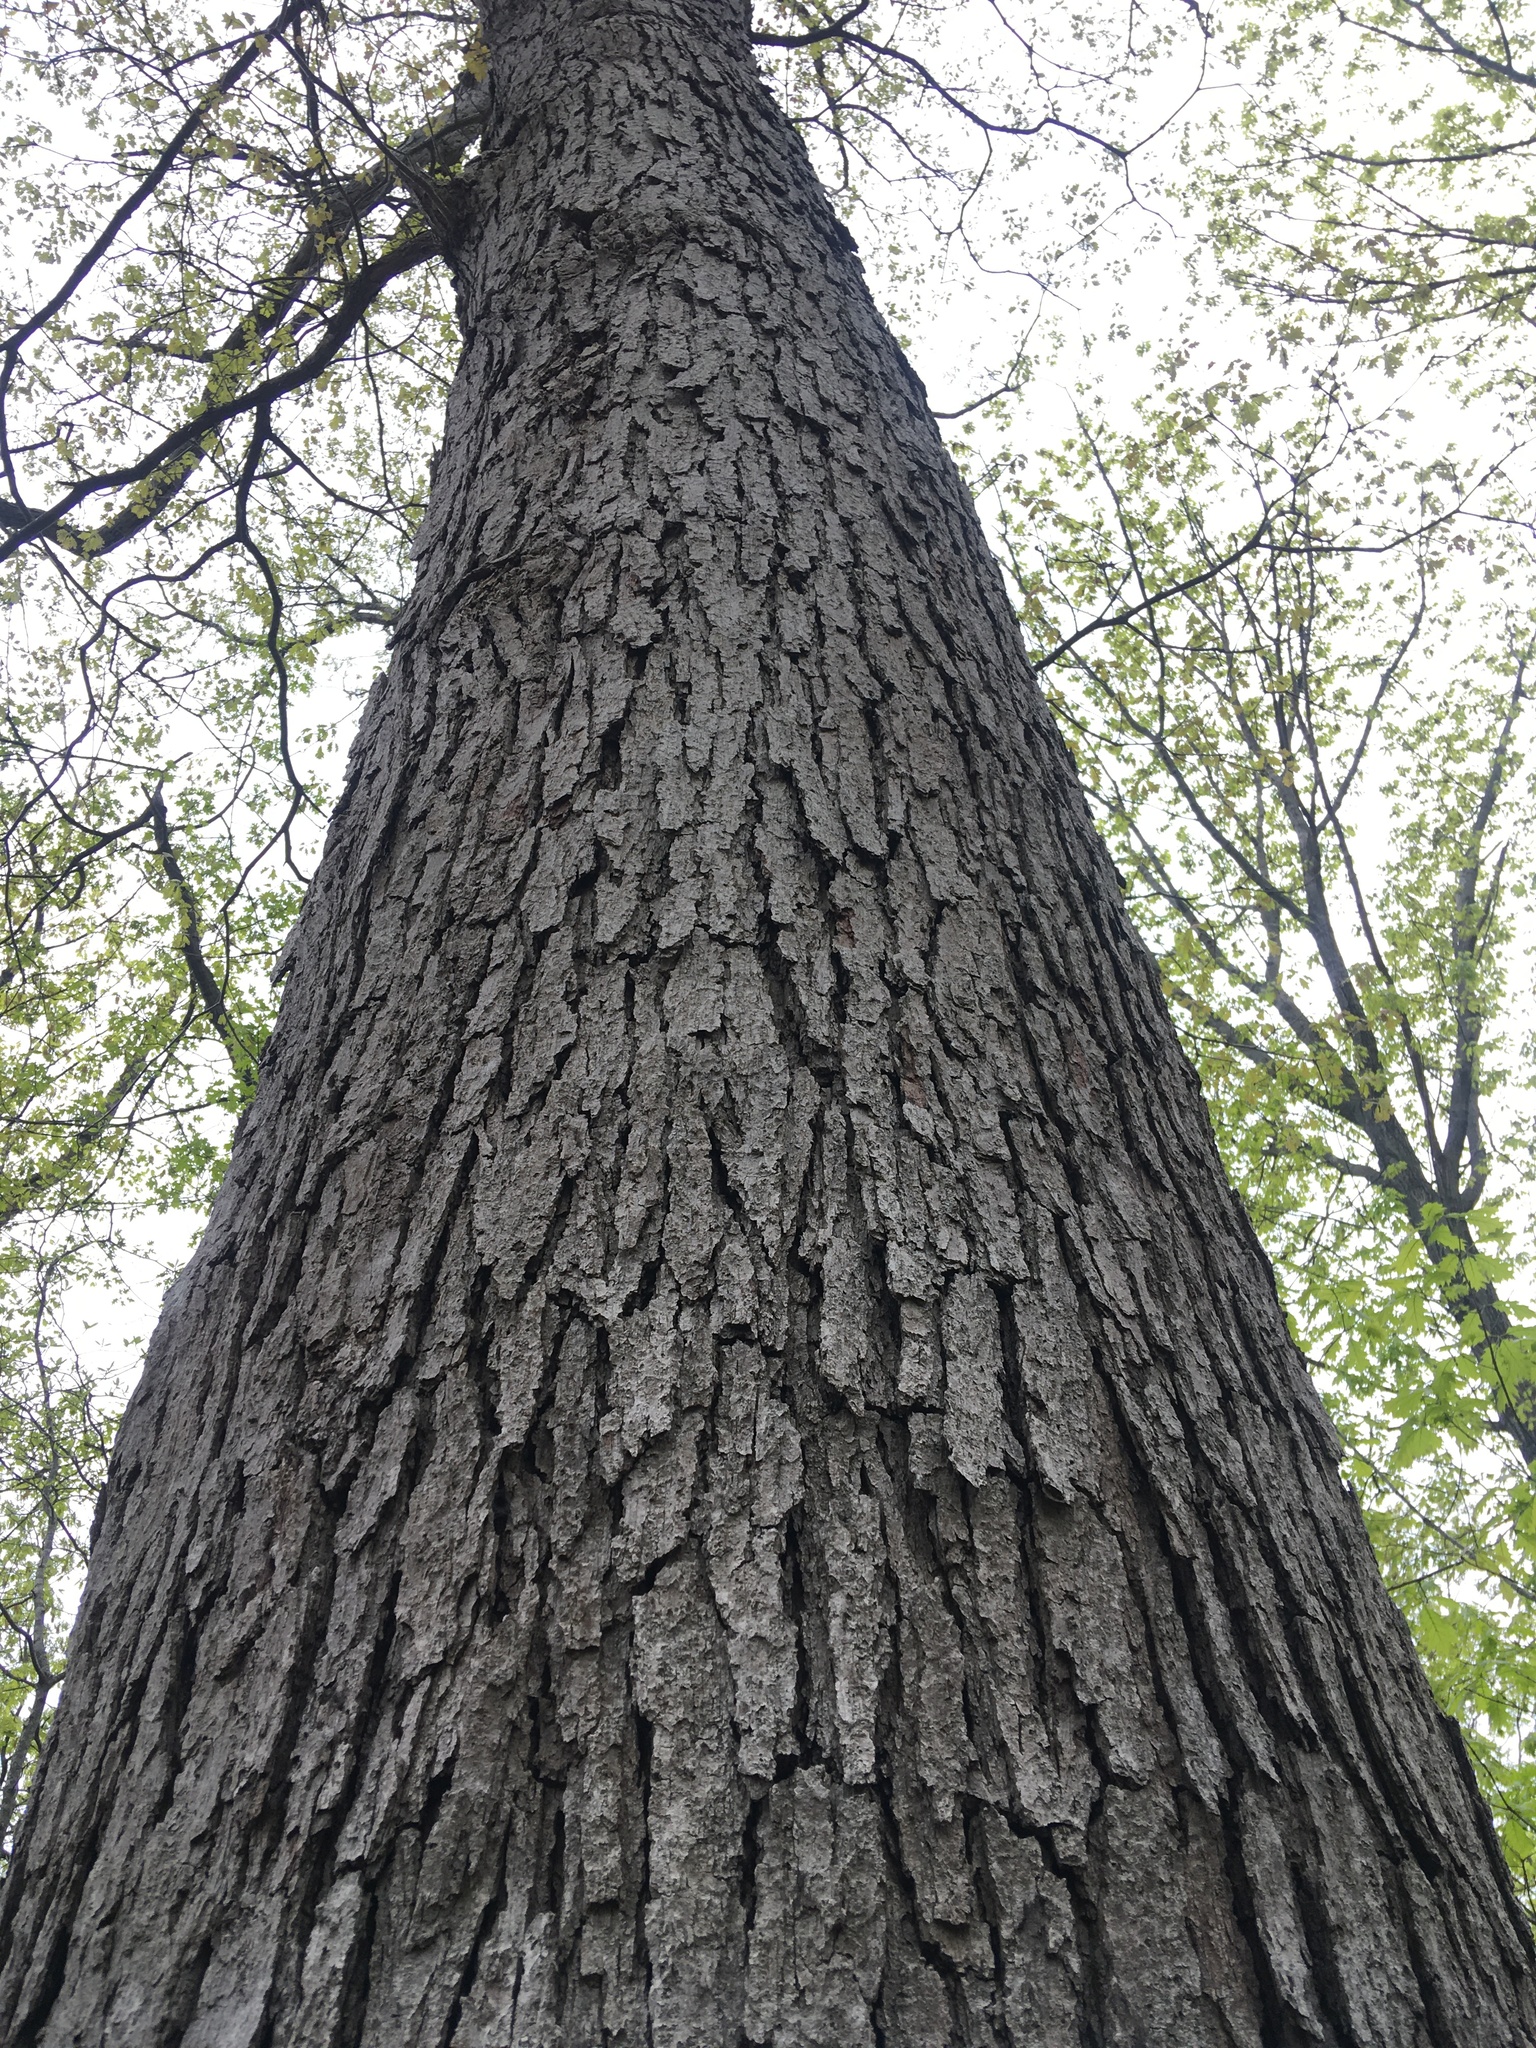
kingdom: Plantae
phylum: Tracheophyta
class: Magnoliopsida
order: Fagales
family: Fagaceae
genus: Quercus
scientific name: Quercus alba
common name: White oak
